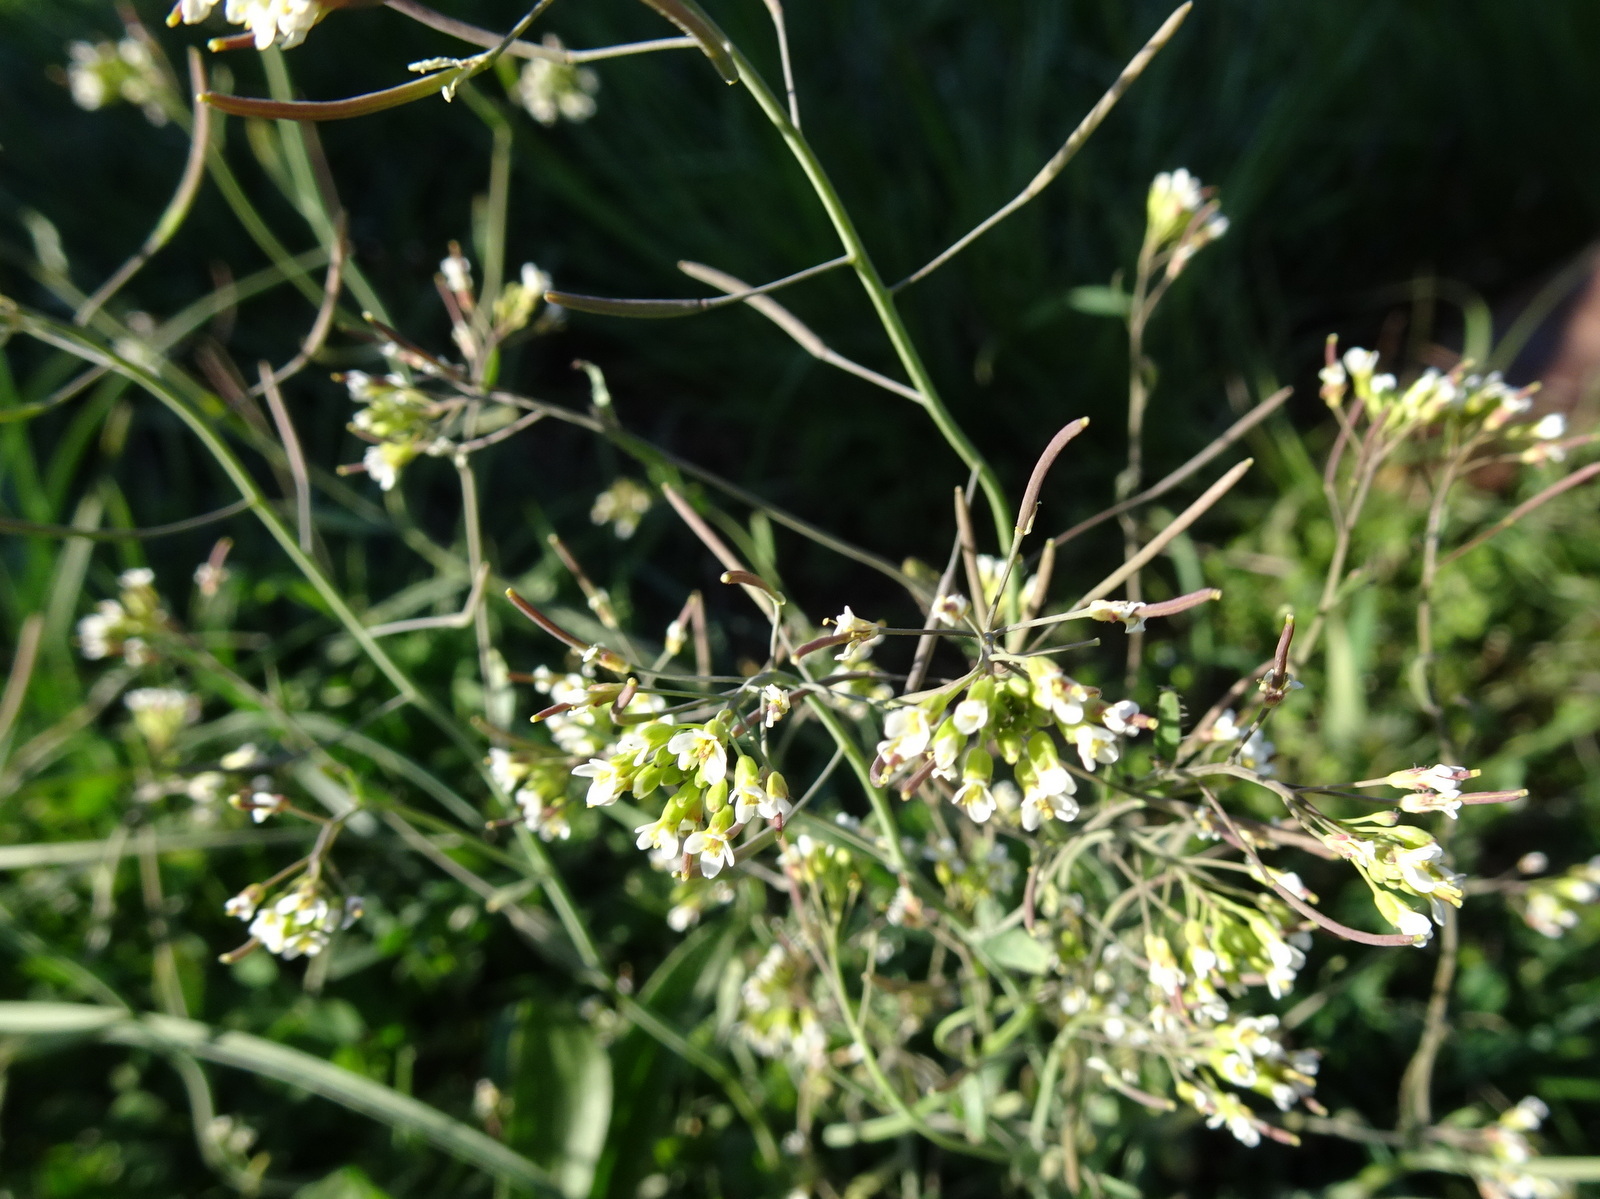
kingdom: Plantae
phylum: Tracheophyta
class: Magnoliopsida
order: Brassicales
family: Brassicaceae
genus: Arabidopsis
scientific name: Arabidopsis thaliana
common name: Thale cress
